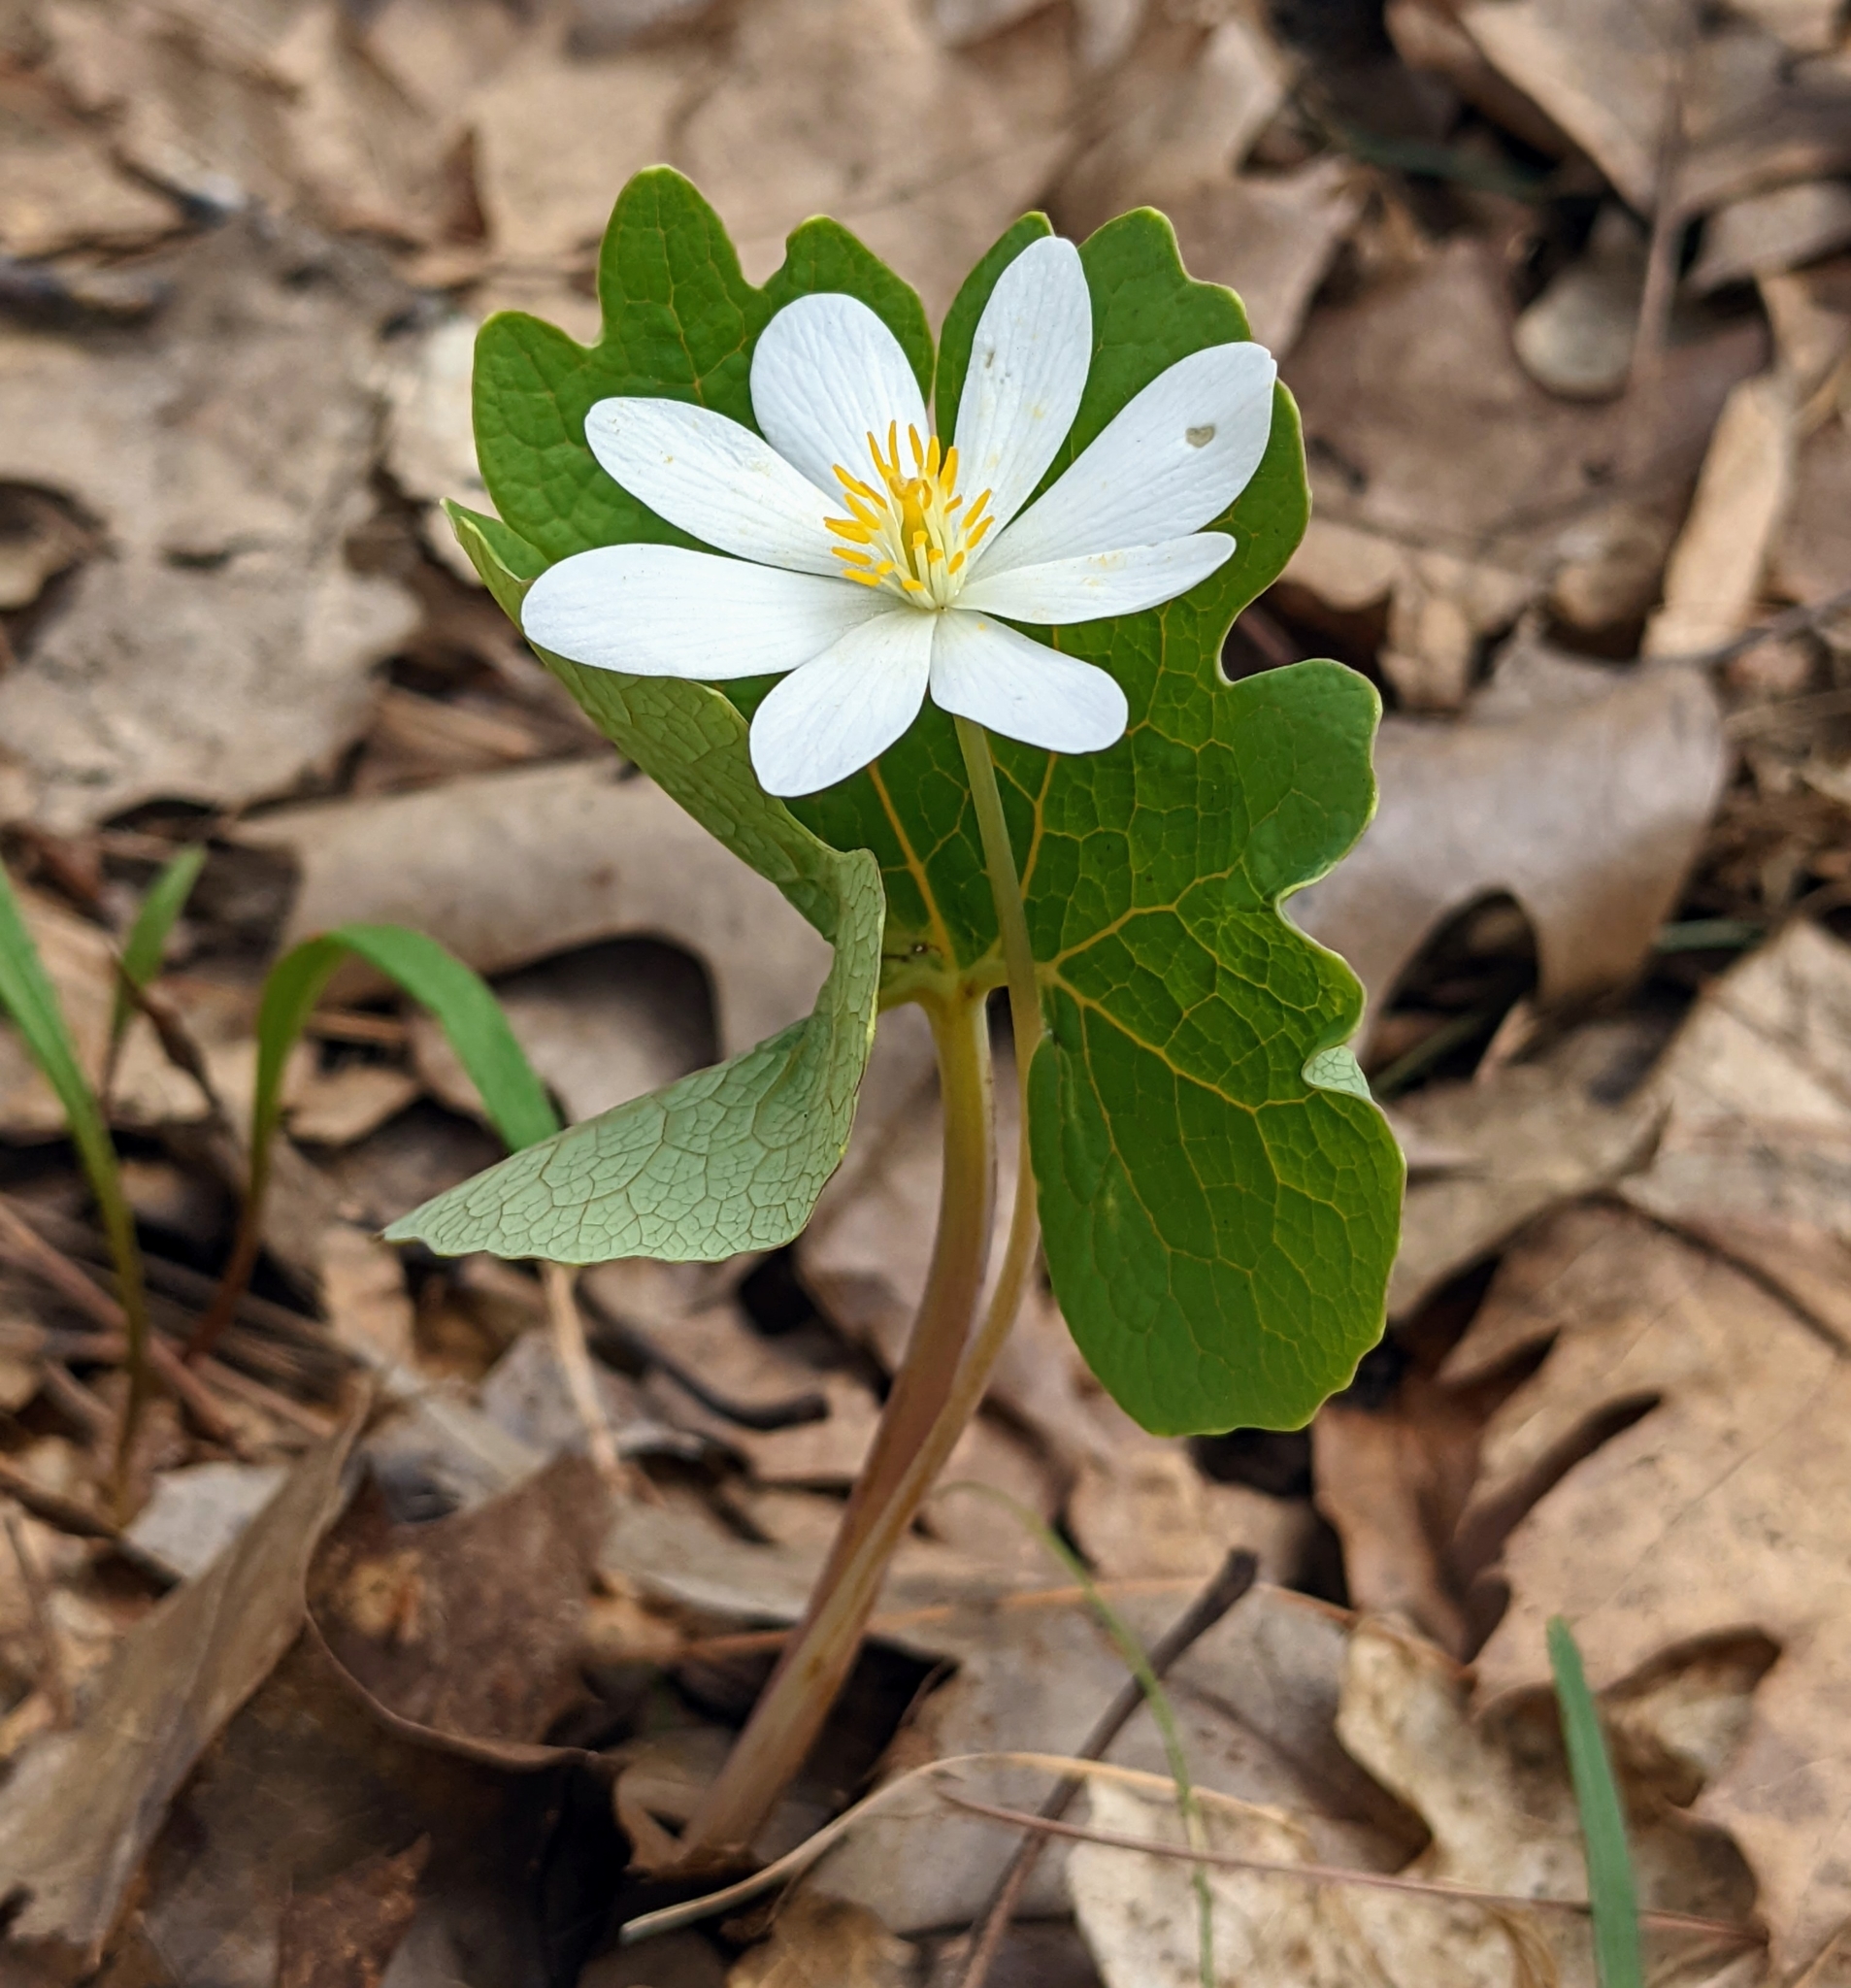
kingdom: Plantae
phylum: Tracheophyta
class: Magnoliopsida
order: Ranunculales
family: Papaveraceae
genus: Sanguinaria
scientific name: Sanguinaria canadensis
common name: Bloodroot
